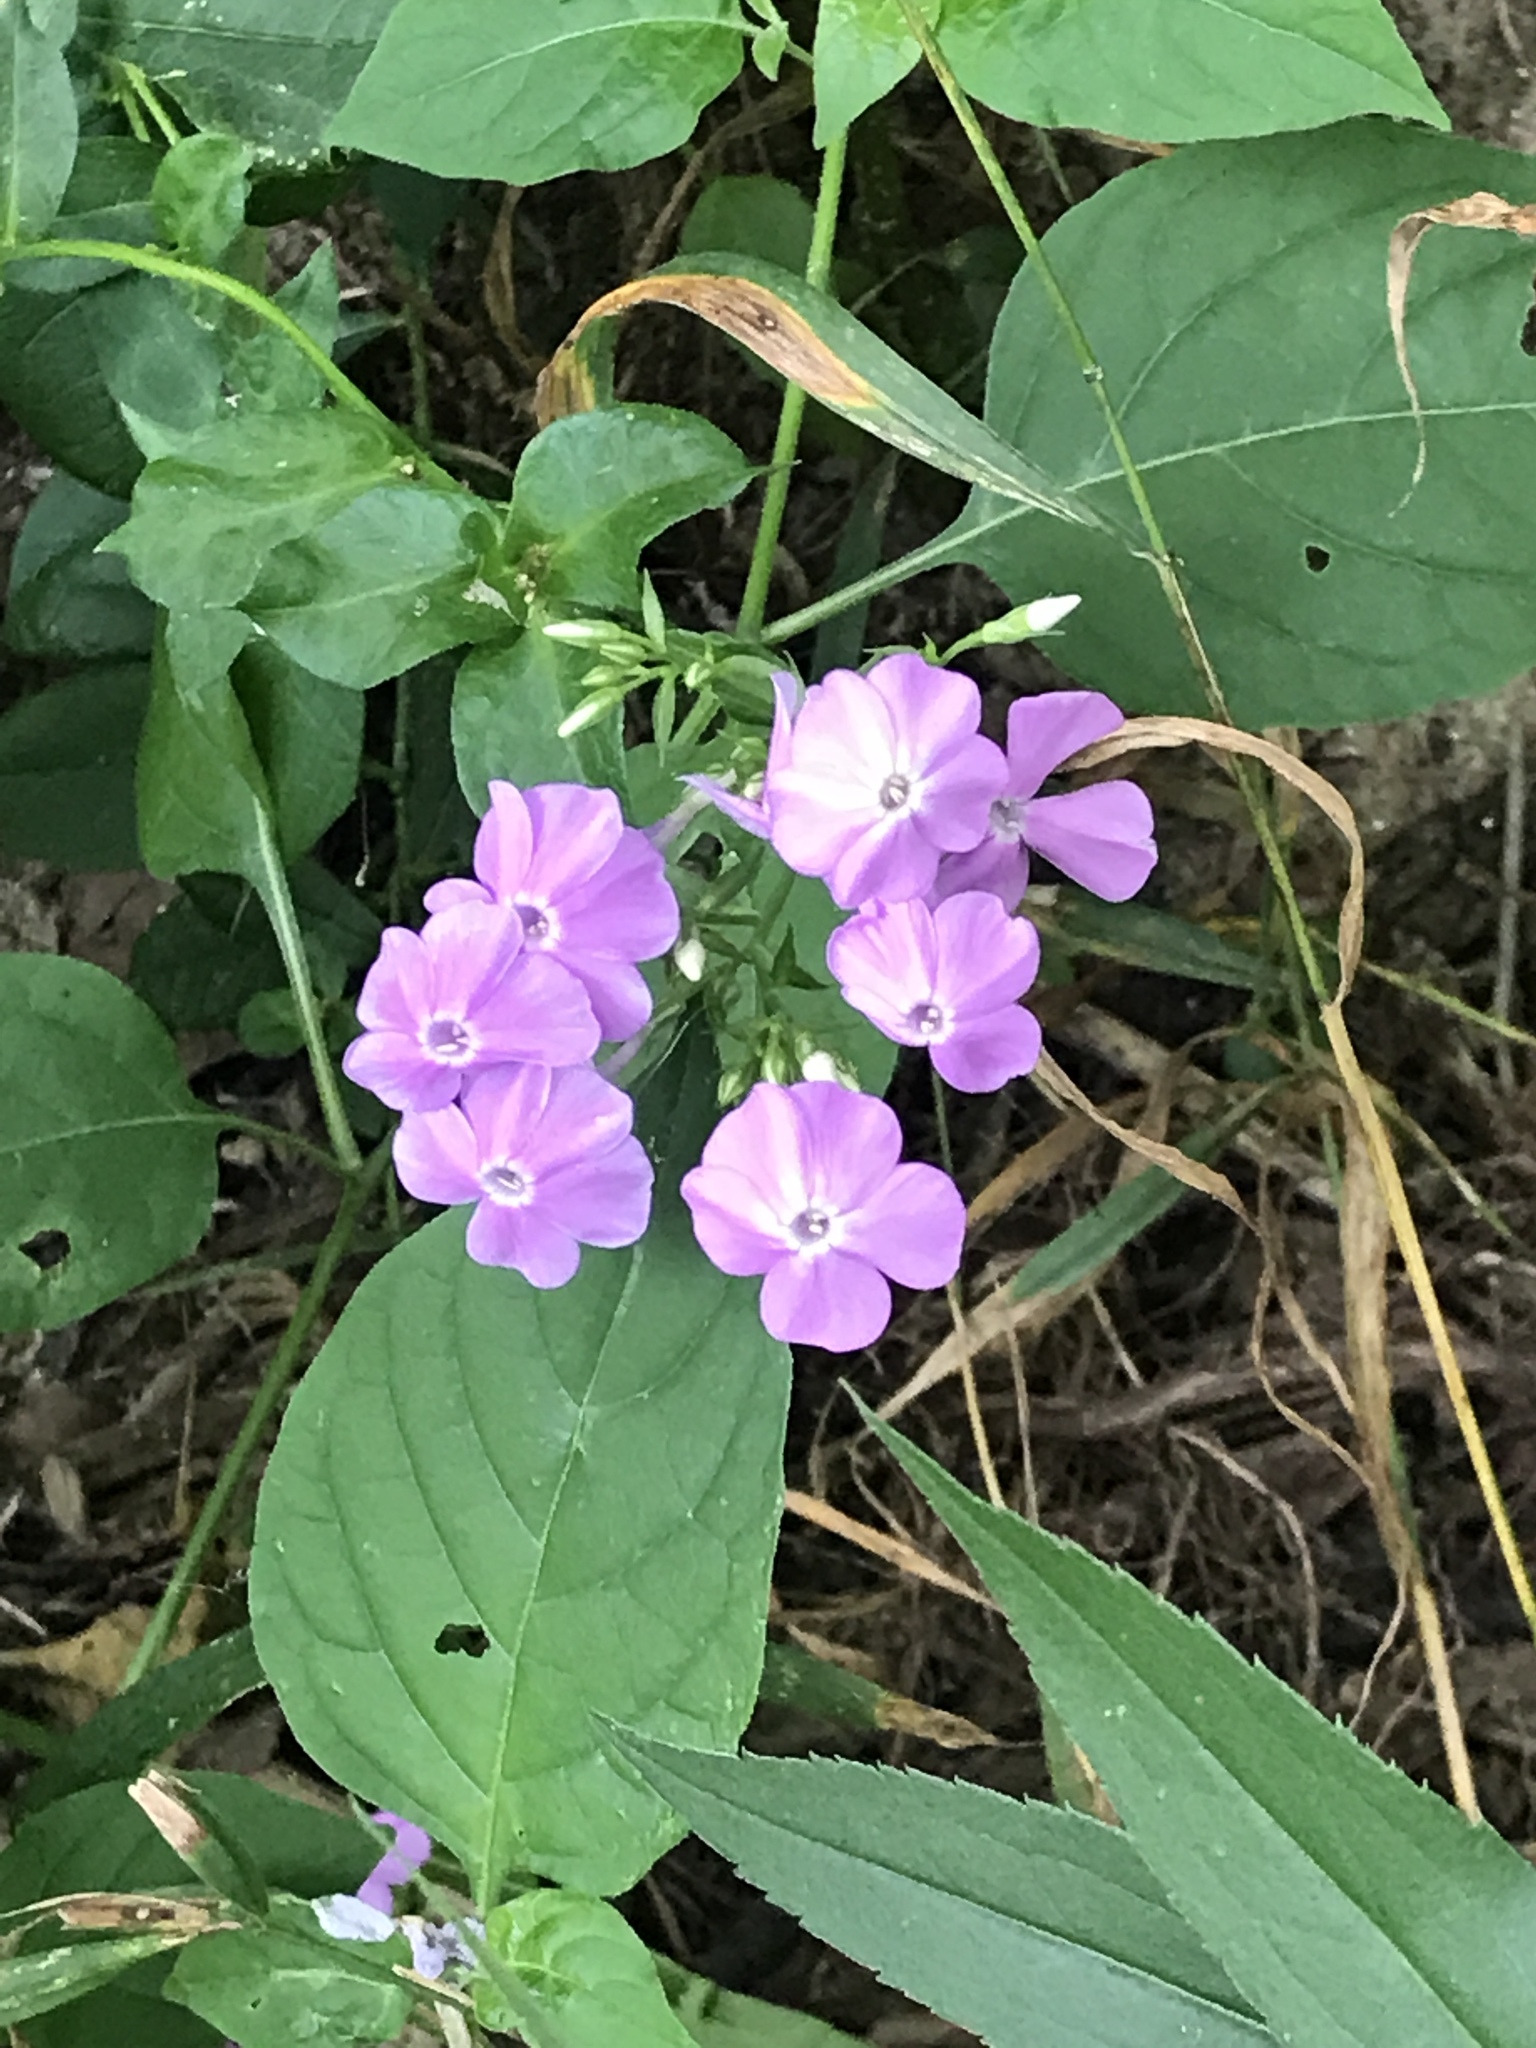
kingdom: Plantae
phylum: Tracheophyta
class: Magnoliopsida
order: Ericales
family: Polemoniaceae
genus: Phlox
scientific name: Phlox paniculata
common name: Fall phlox
